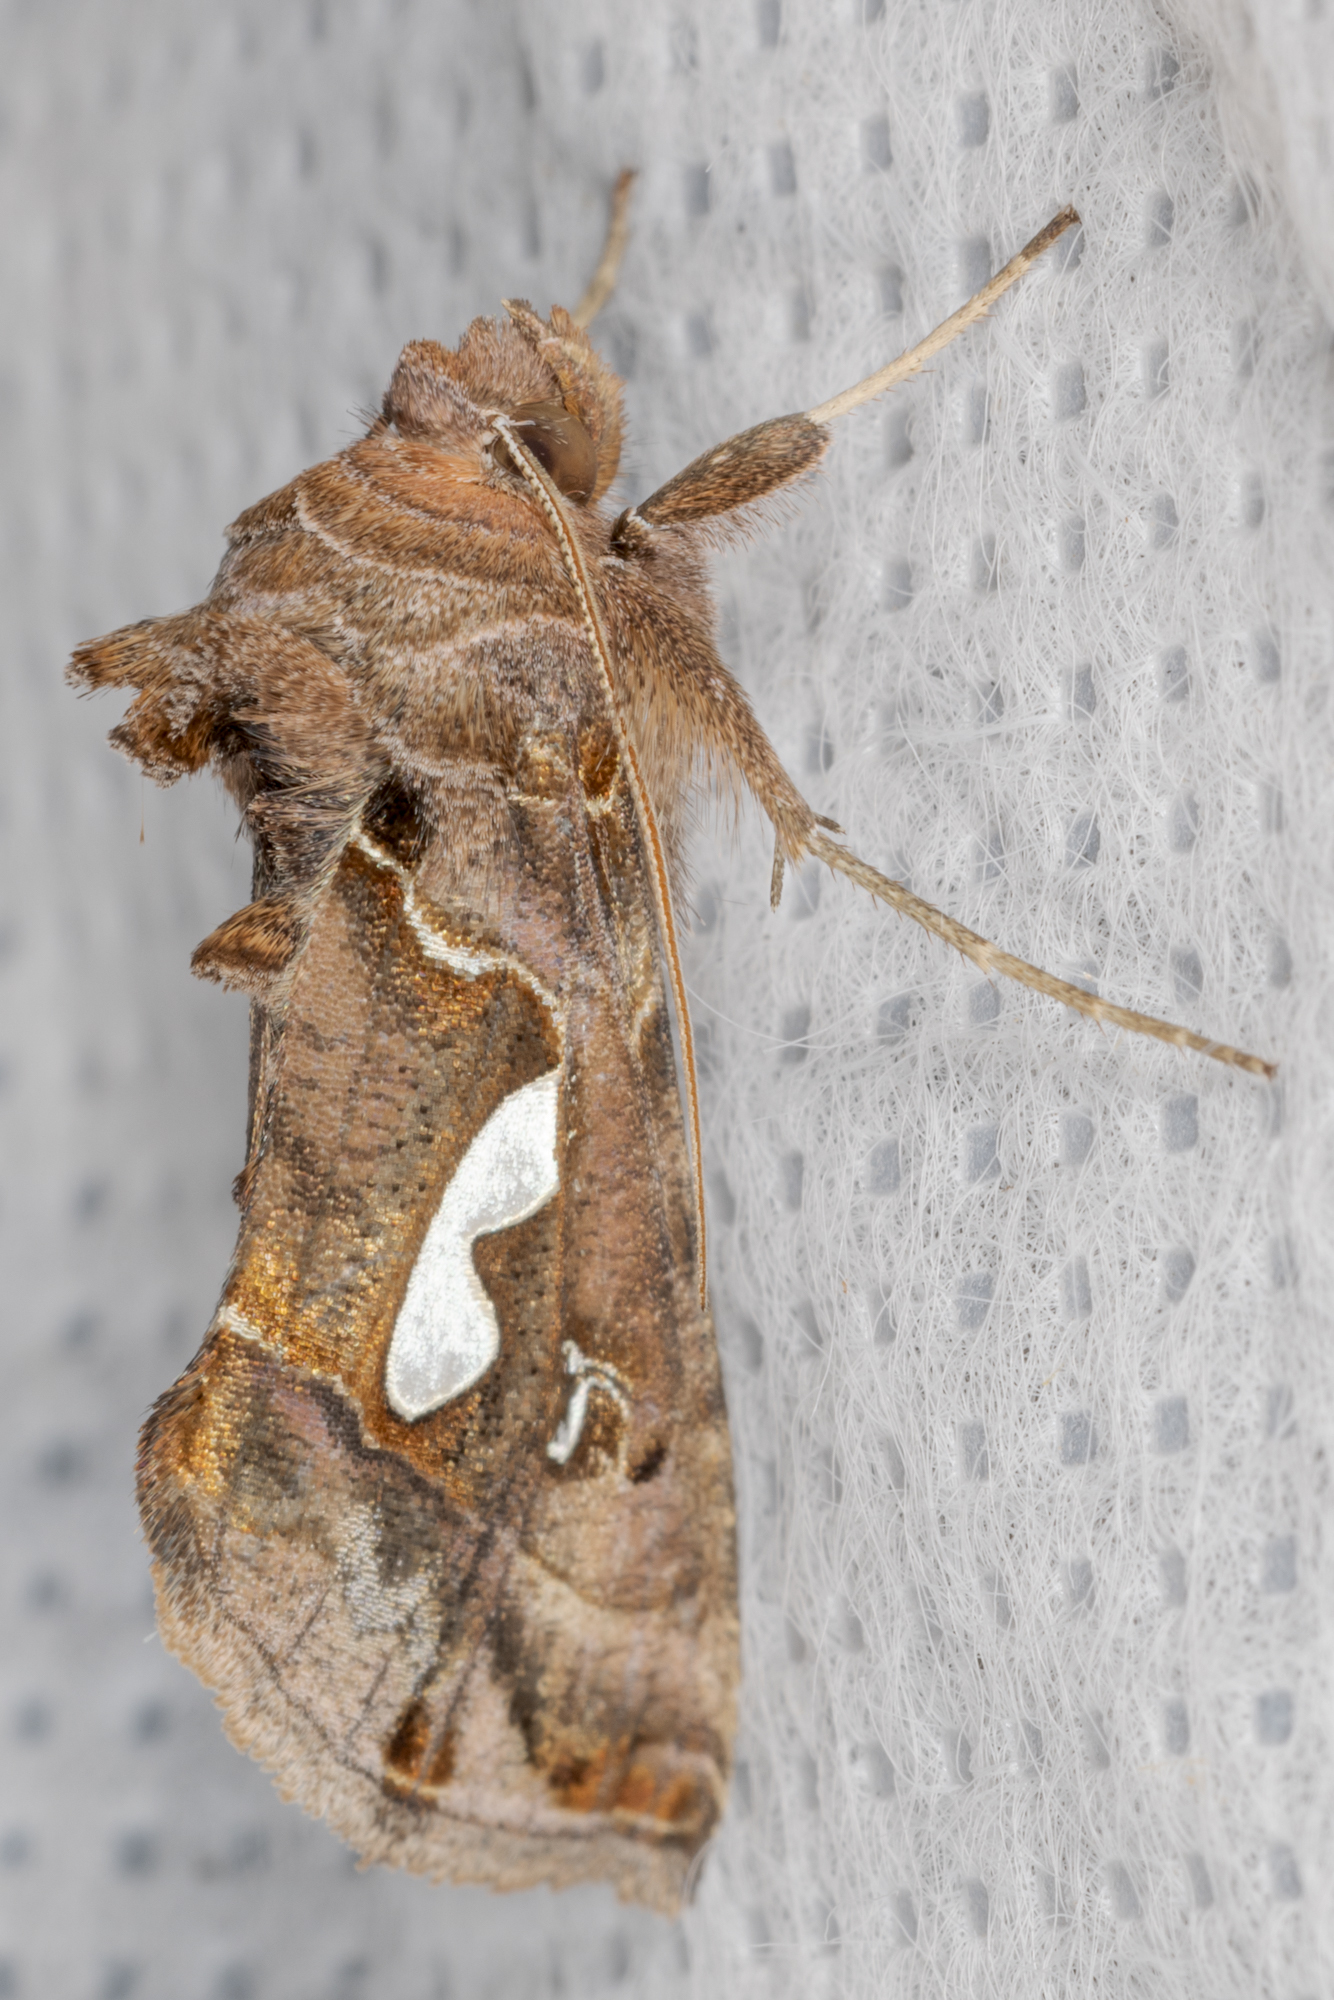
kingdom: Animalia
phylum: Arthropoda
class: Insecta
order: Lepidoptera
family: Noctuidae
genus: Megalographa
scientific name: Megalographa biloba
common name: Cutworm
